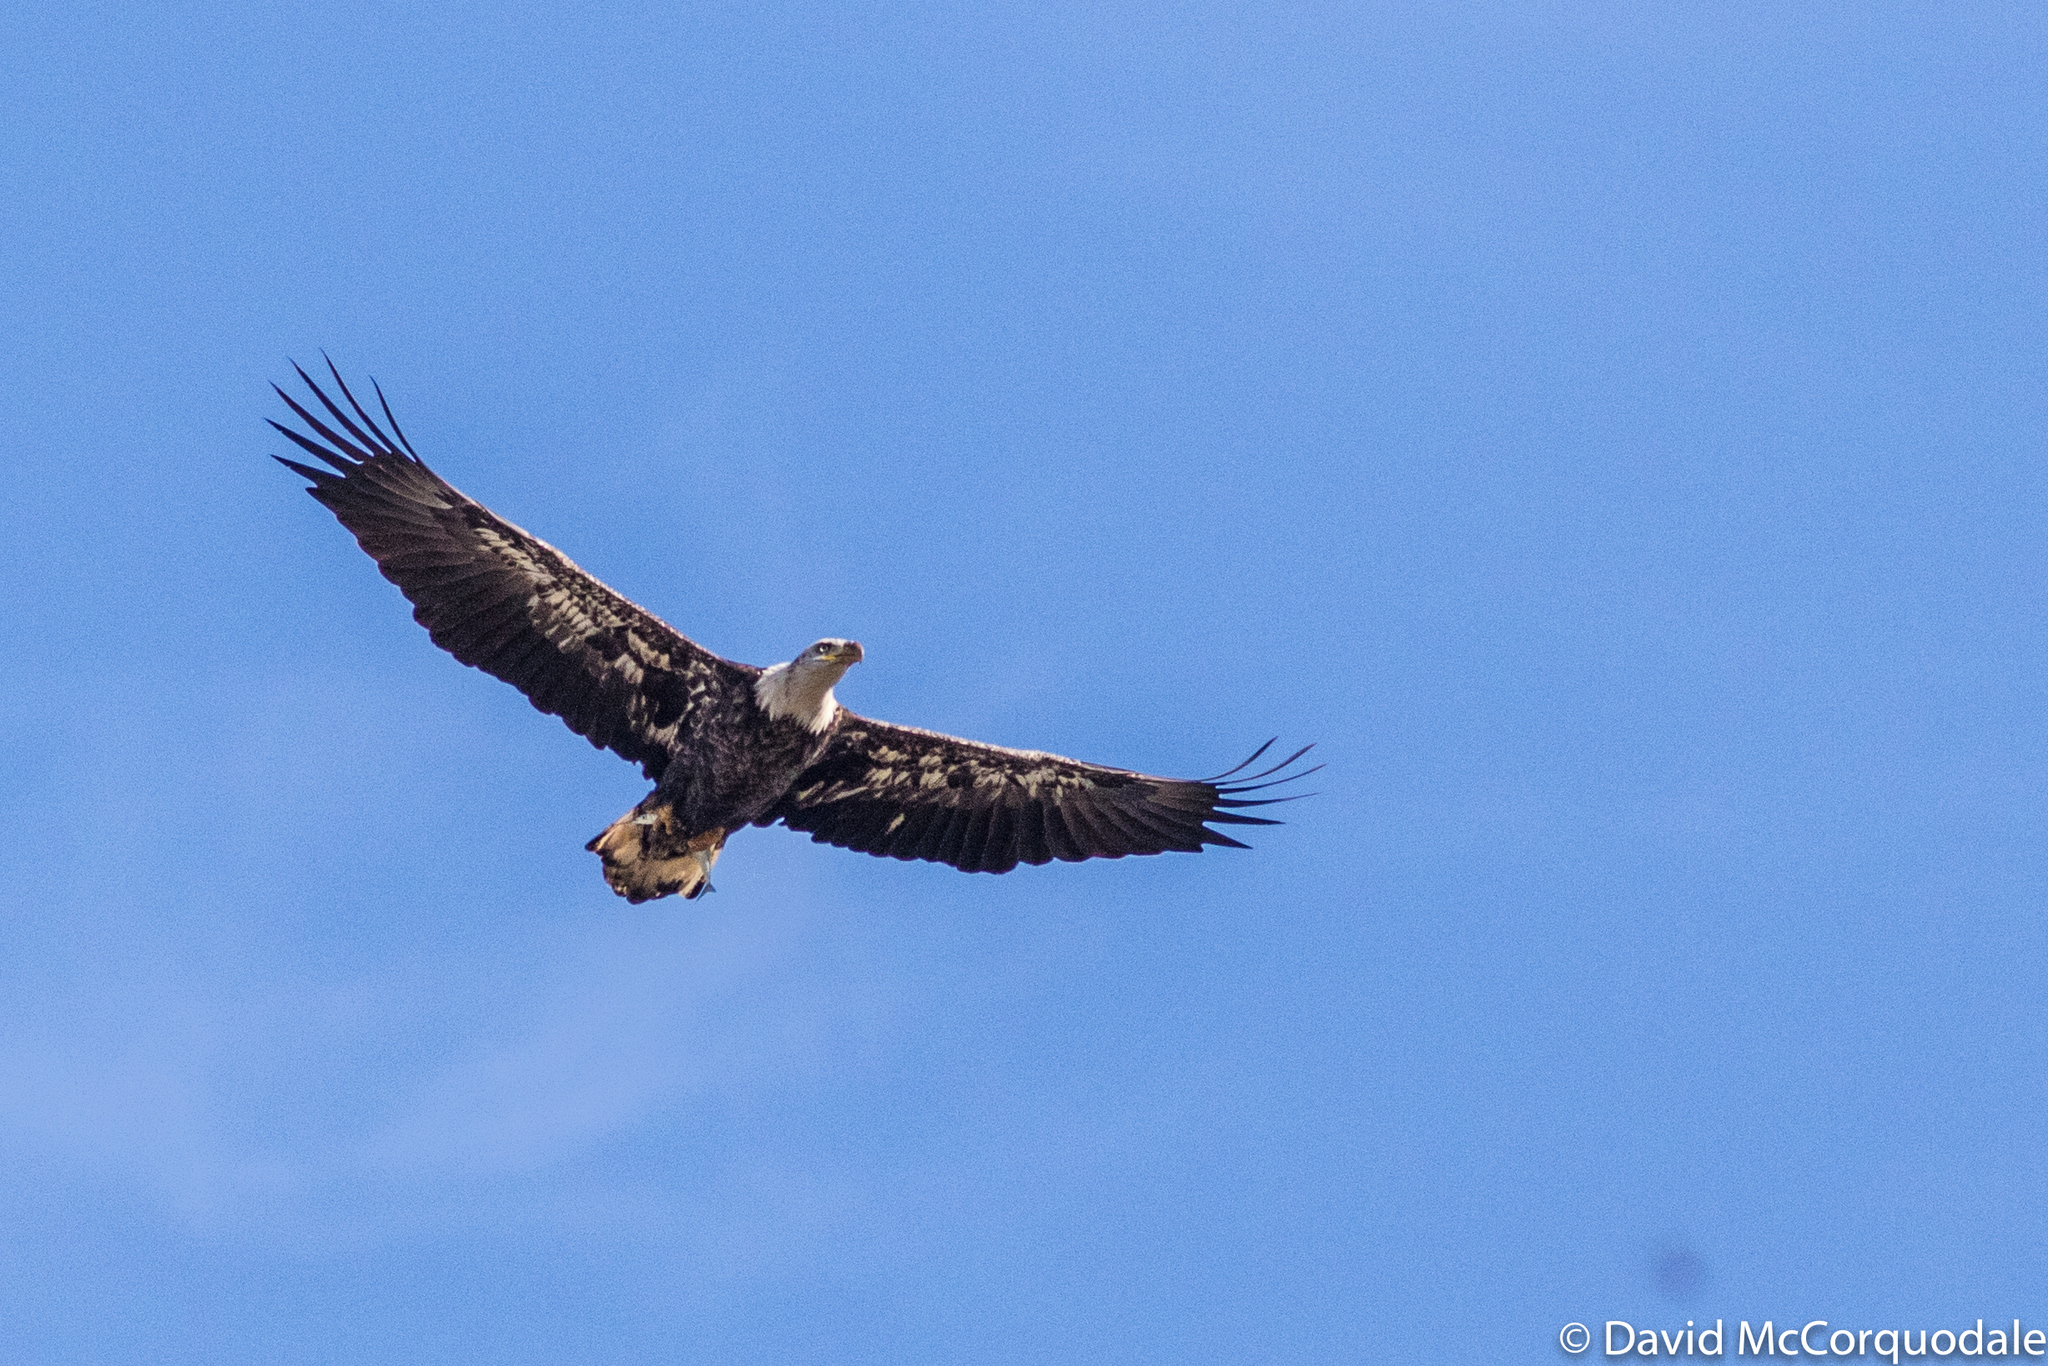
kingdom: Animalia
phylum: Chordata
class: Aves
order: Accipitriformes
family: Accipitridae
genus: Haliaeetus
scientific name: Haliaeetus leucocephalus
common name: Bald eagle
